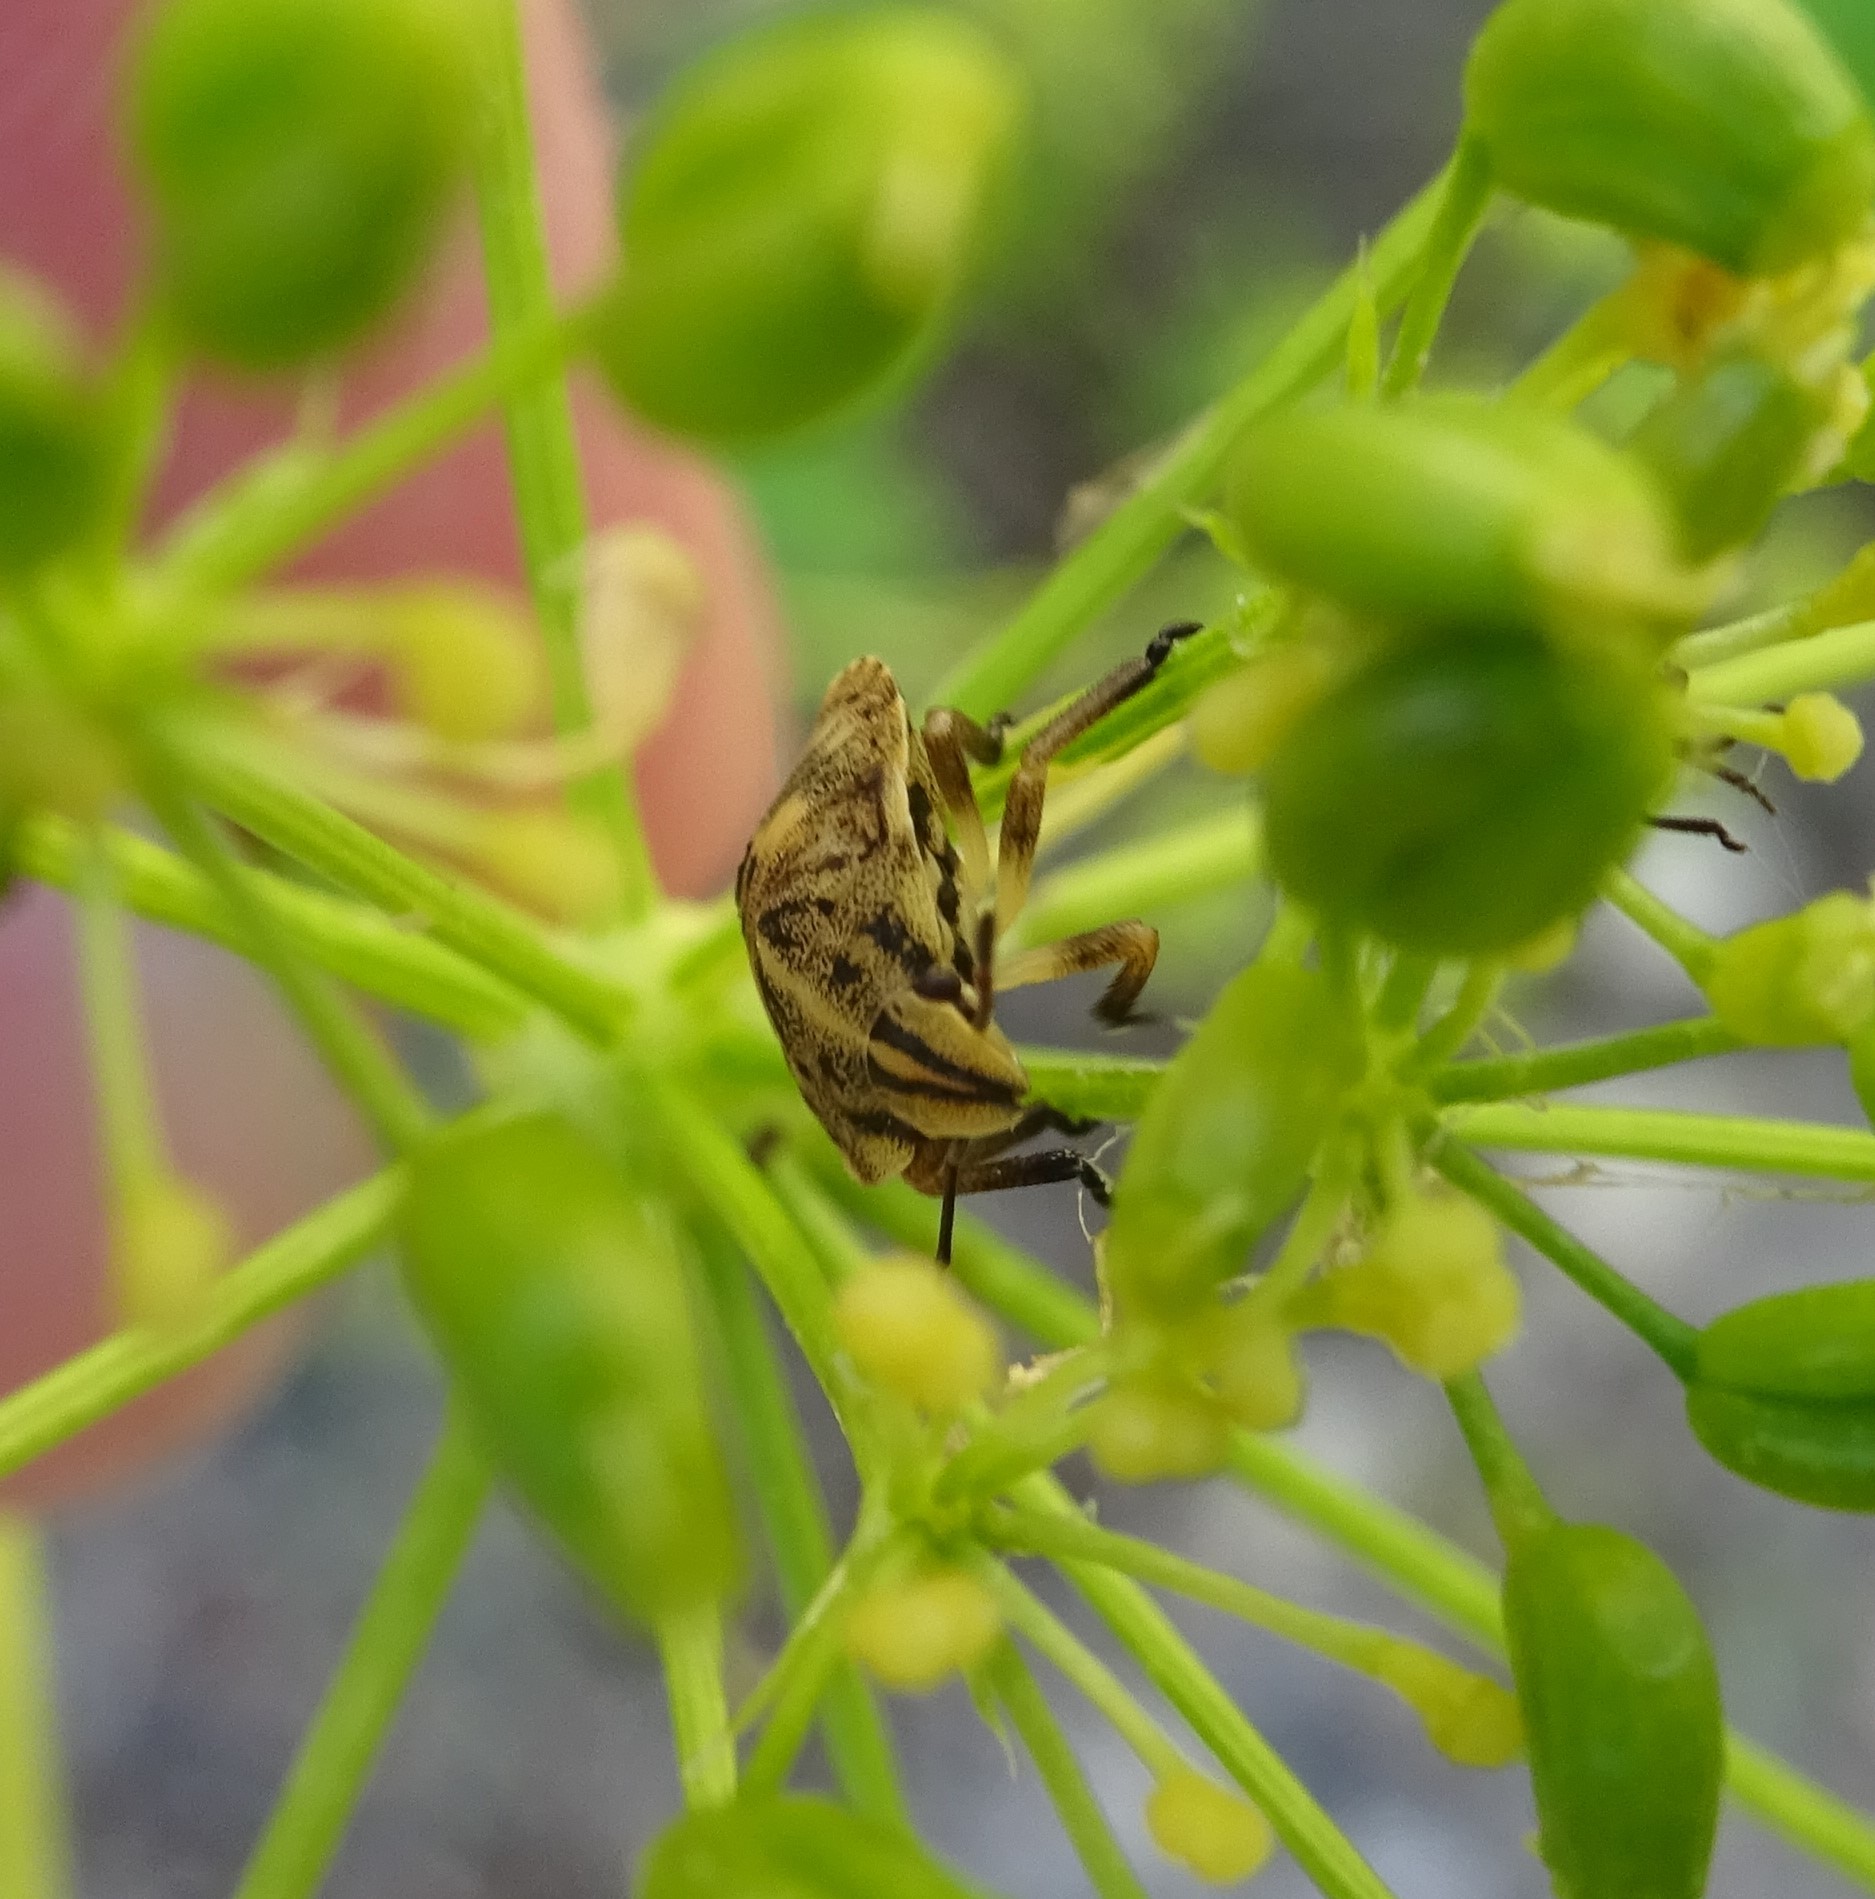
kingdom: Animalia
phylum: Arthropoda
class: Insecta
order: Hemiptera
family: Pentatomidae
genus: Graphosoma
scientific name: Graphosoma italicum
